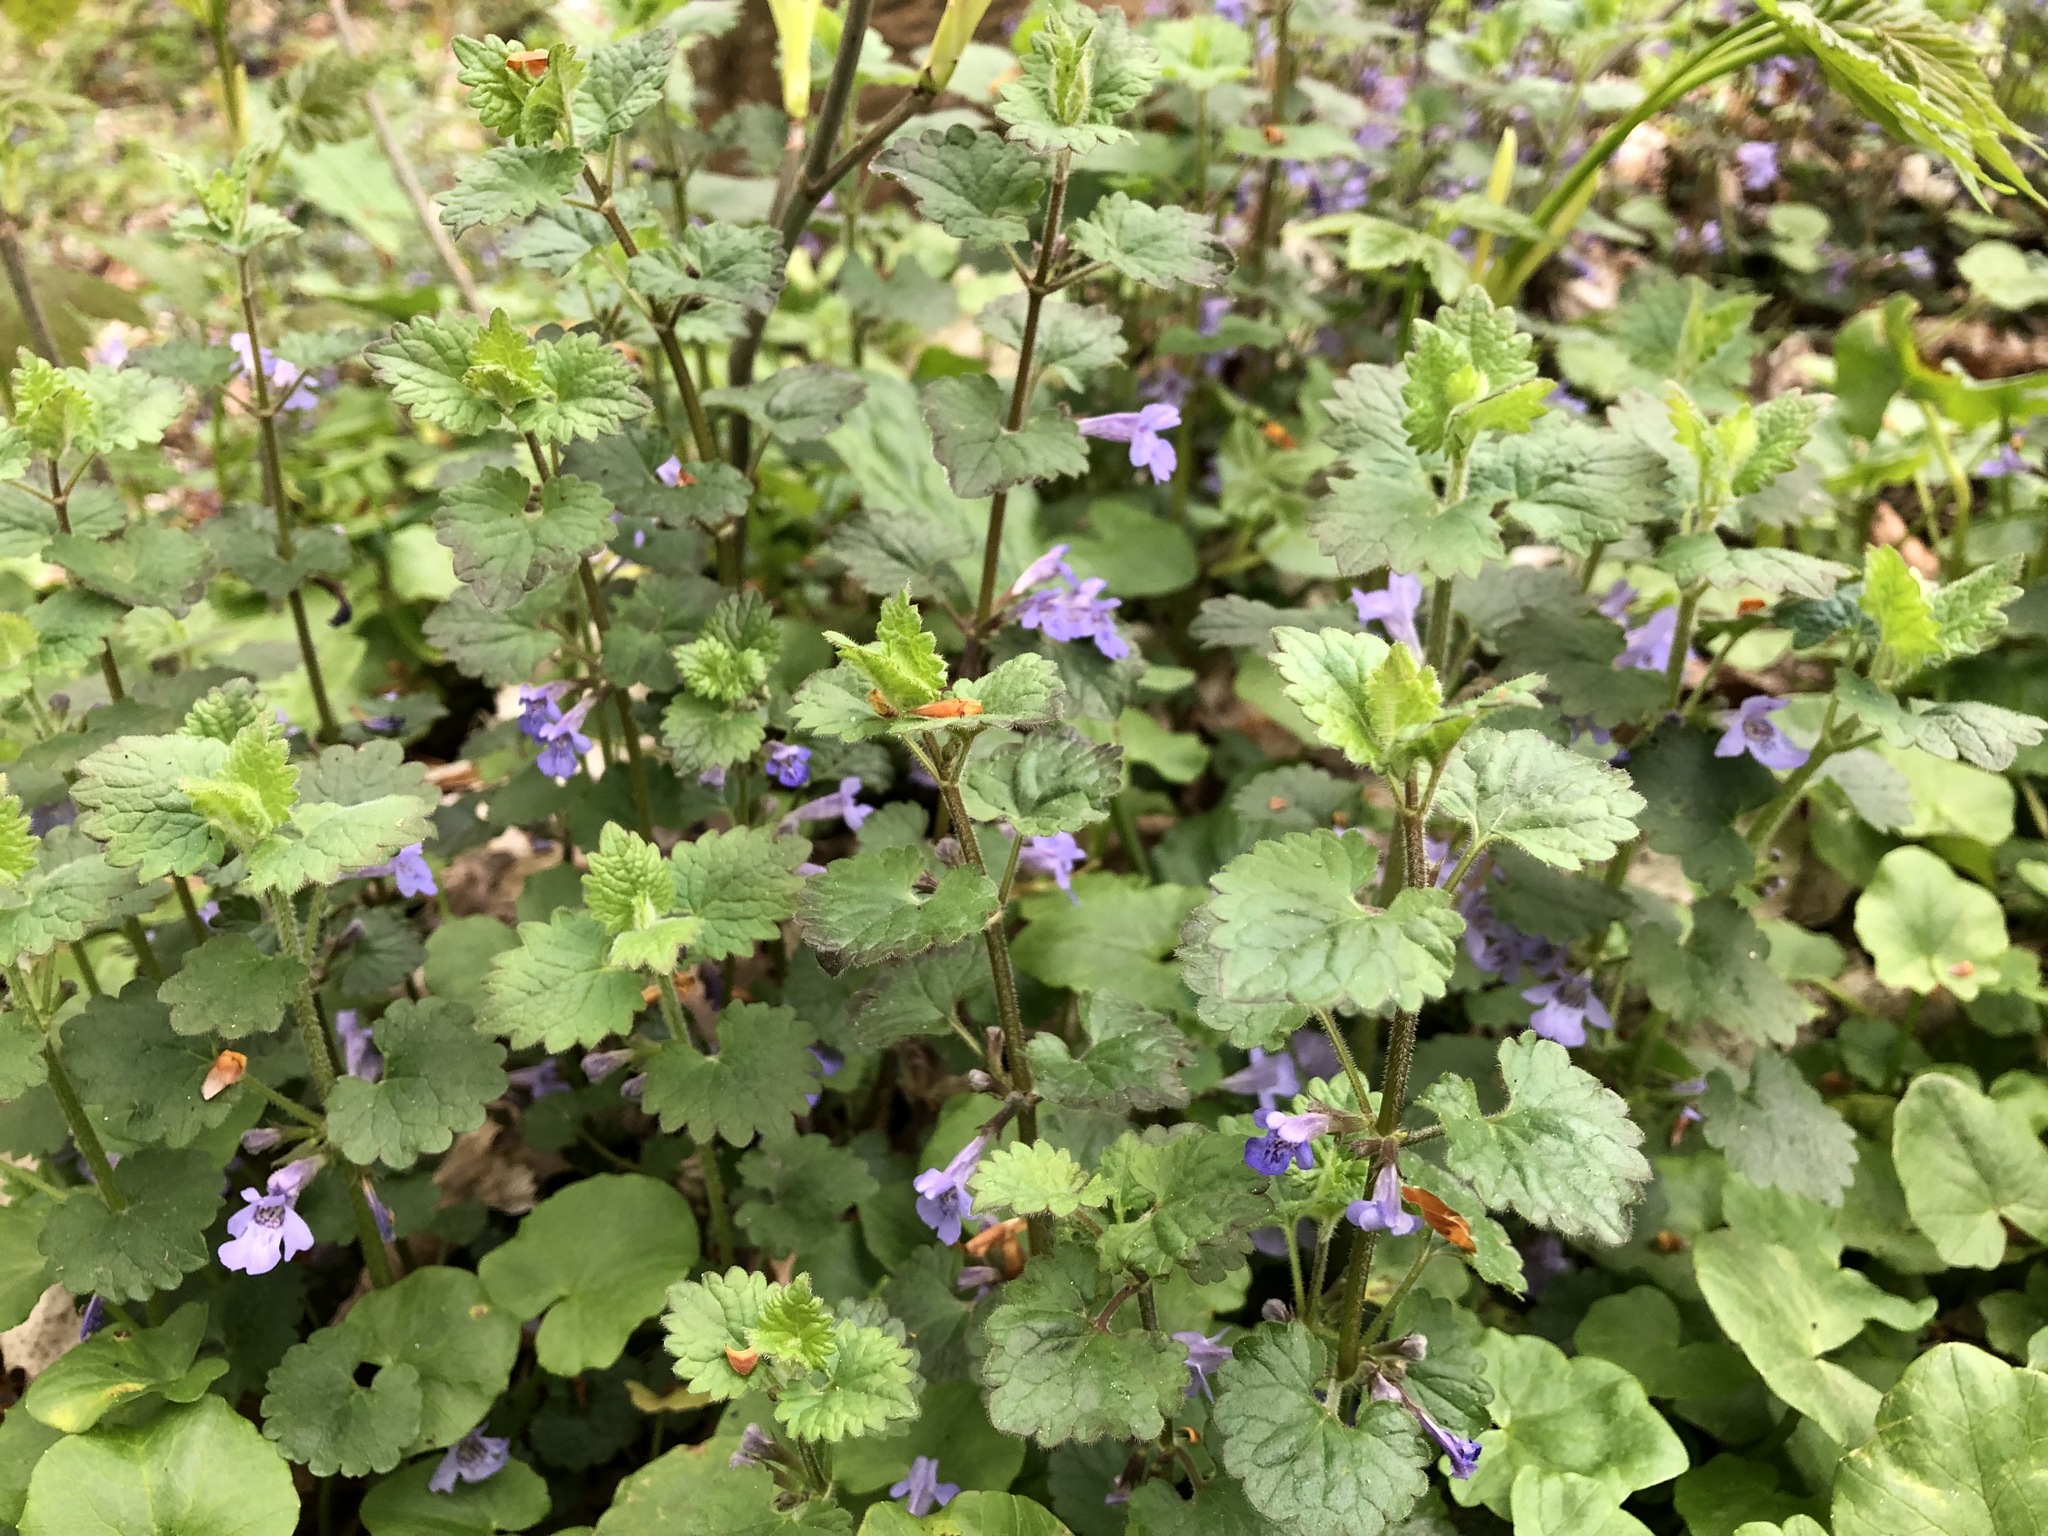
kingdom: Plantae
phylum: Tracheophyta
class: Magnoliopsida
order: Lamiales
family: Lamiaceae
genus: Glechoma
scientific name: Glechoma hederacea
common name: Ground ivy
